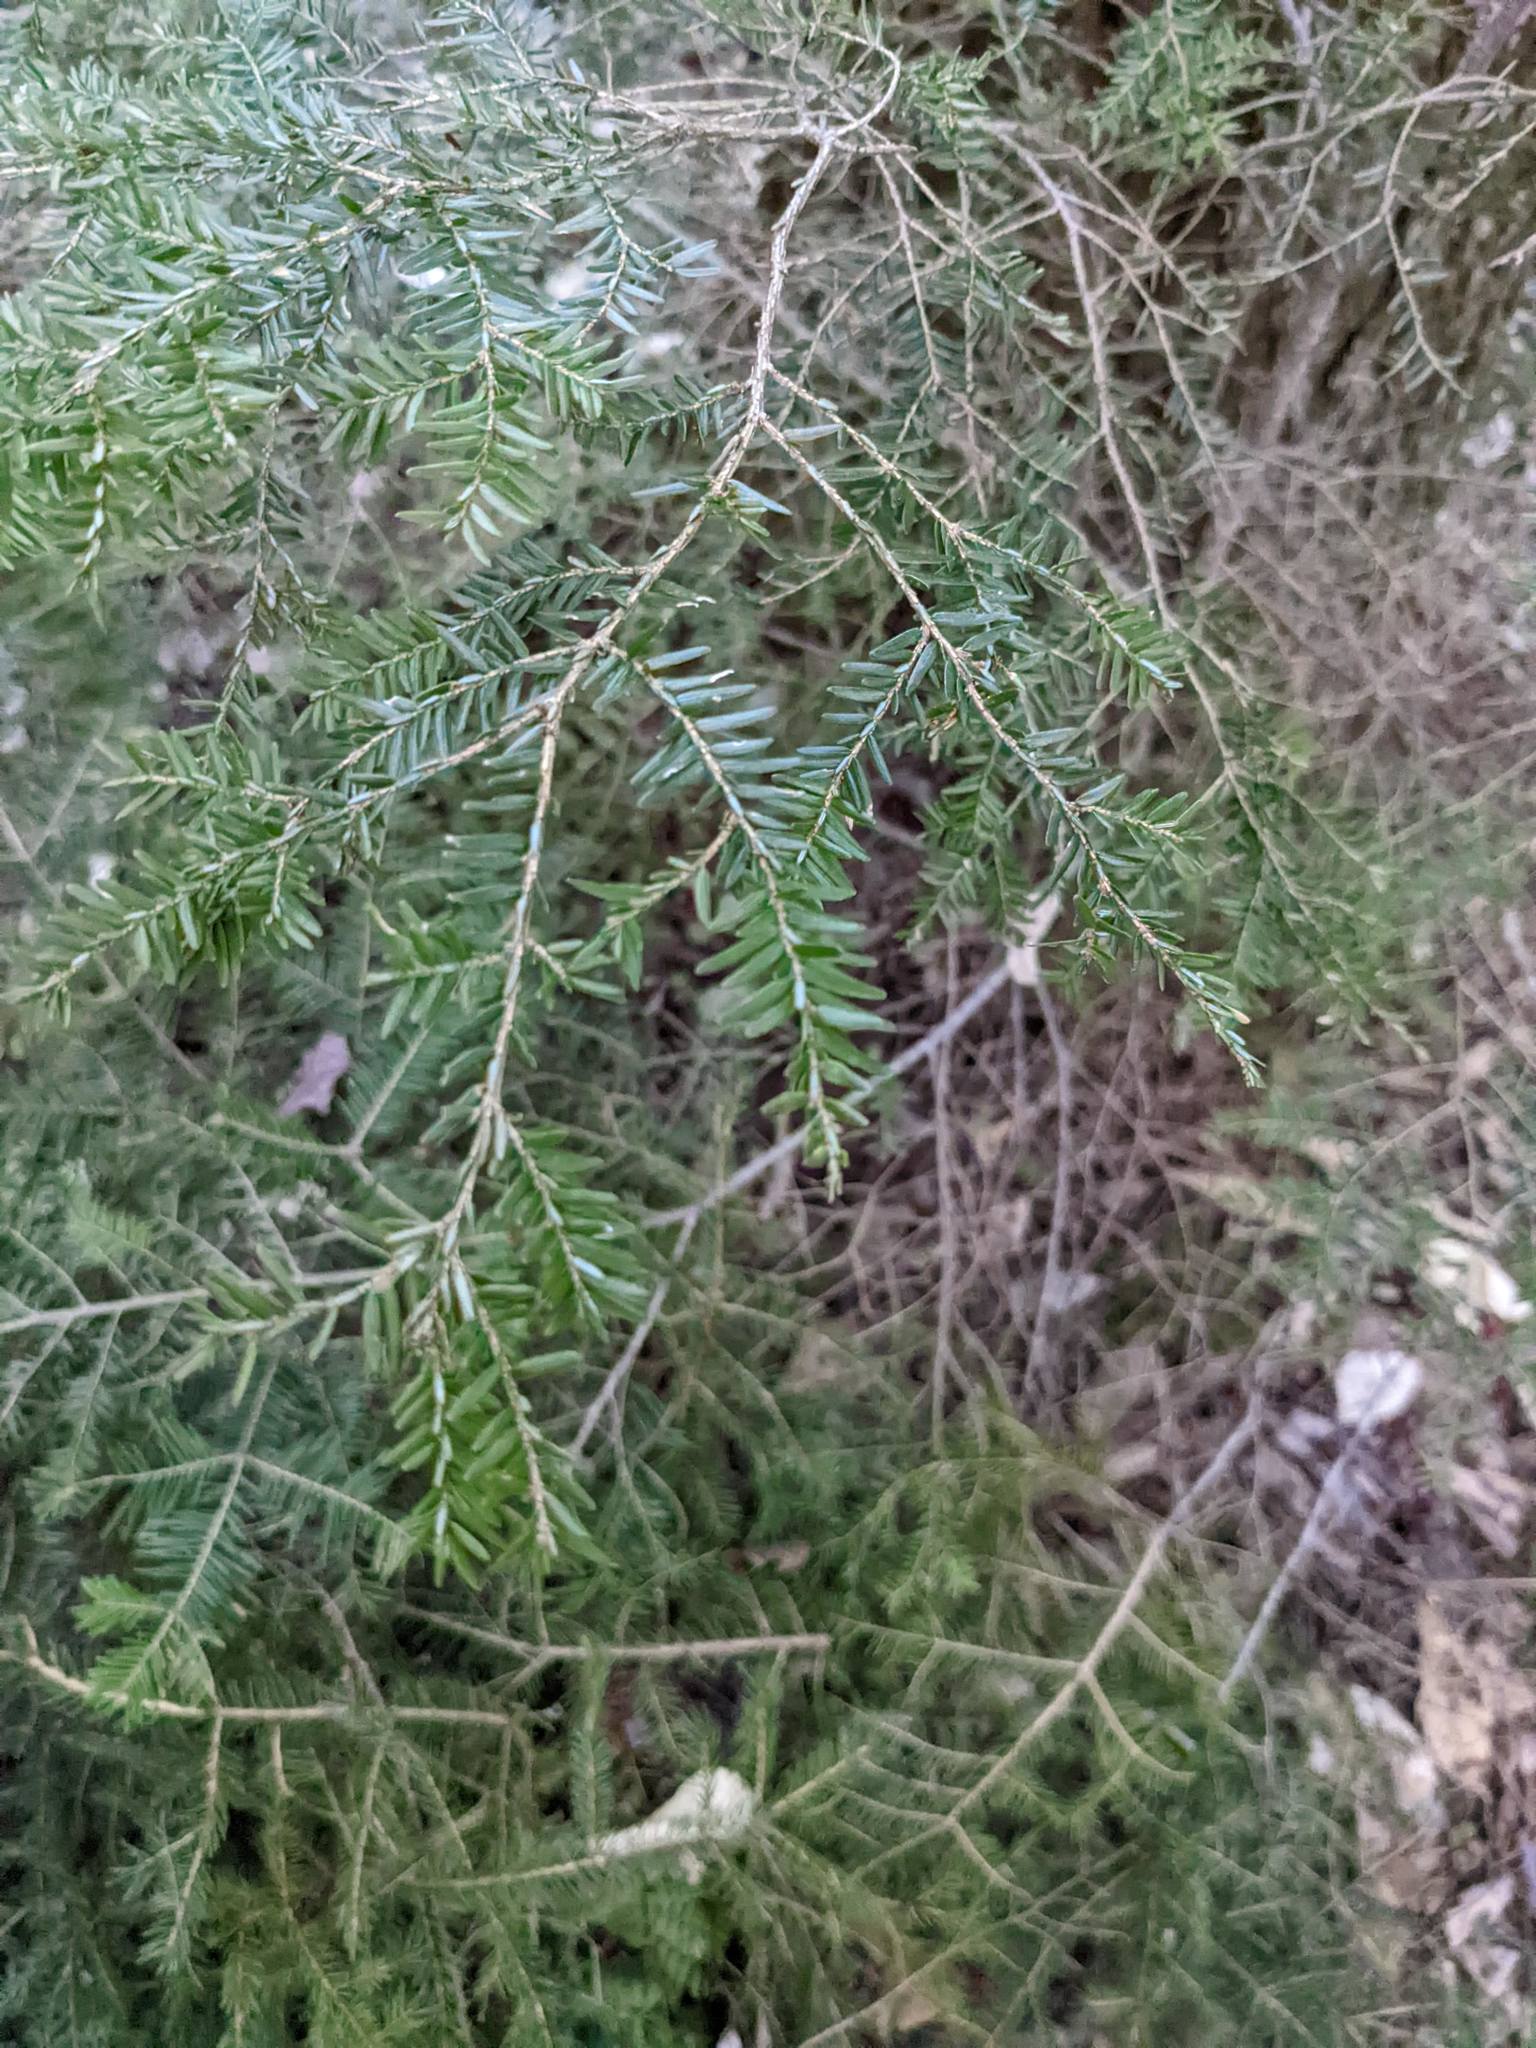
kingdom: Plantae
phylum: Tracheophyta
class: Pinopsida
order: Pinales
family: Pinaceae
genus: Tsuga
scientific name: Tsuga canadensis
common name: Eastern hemlock
